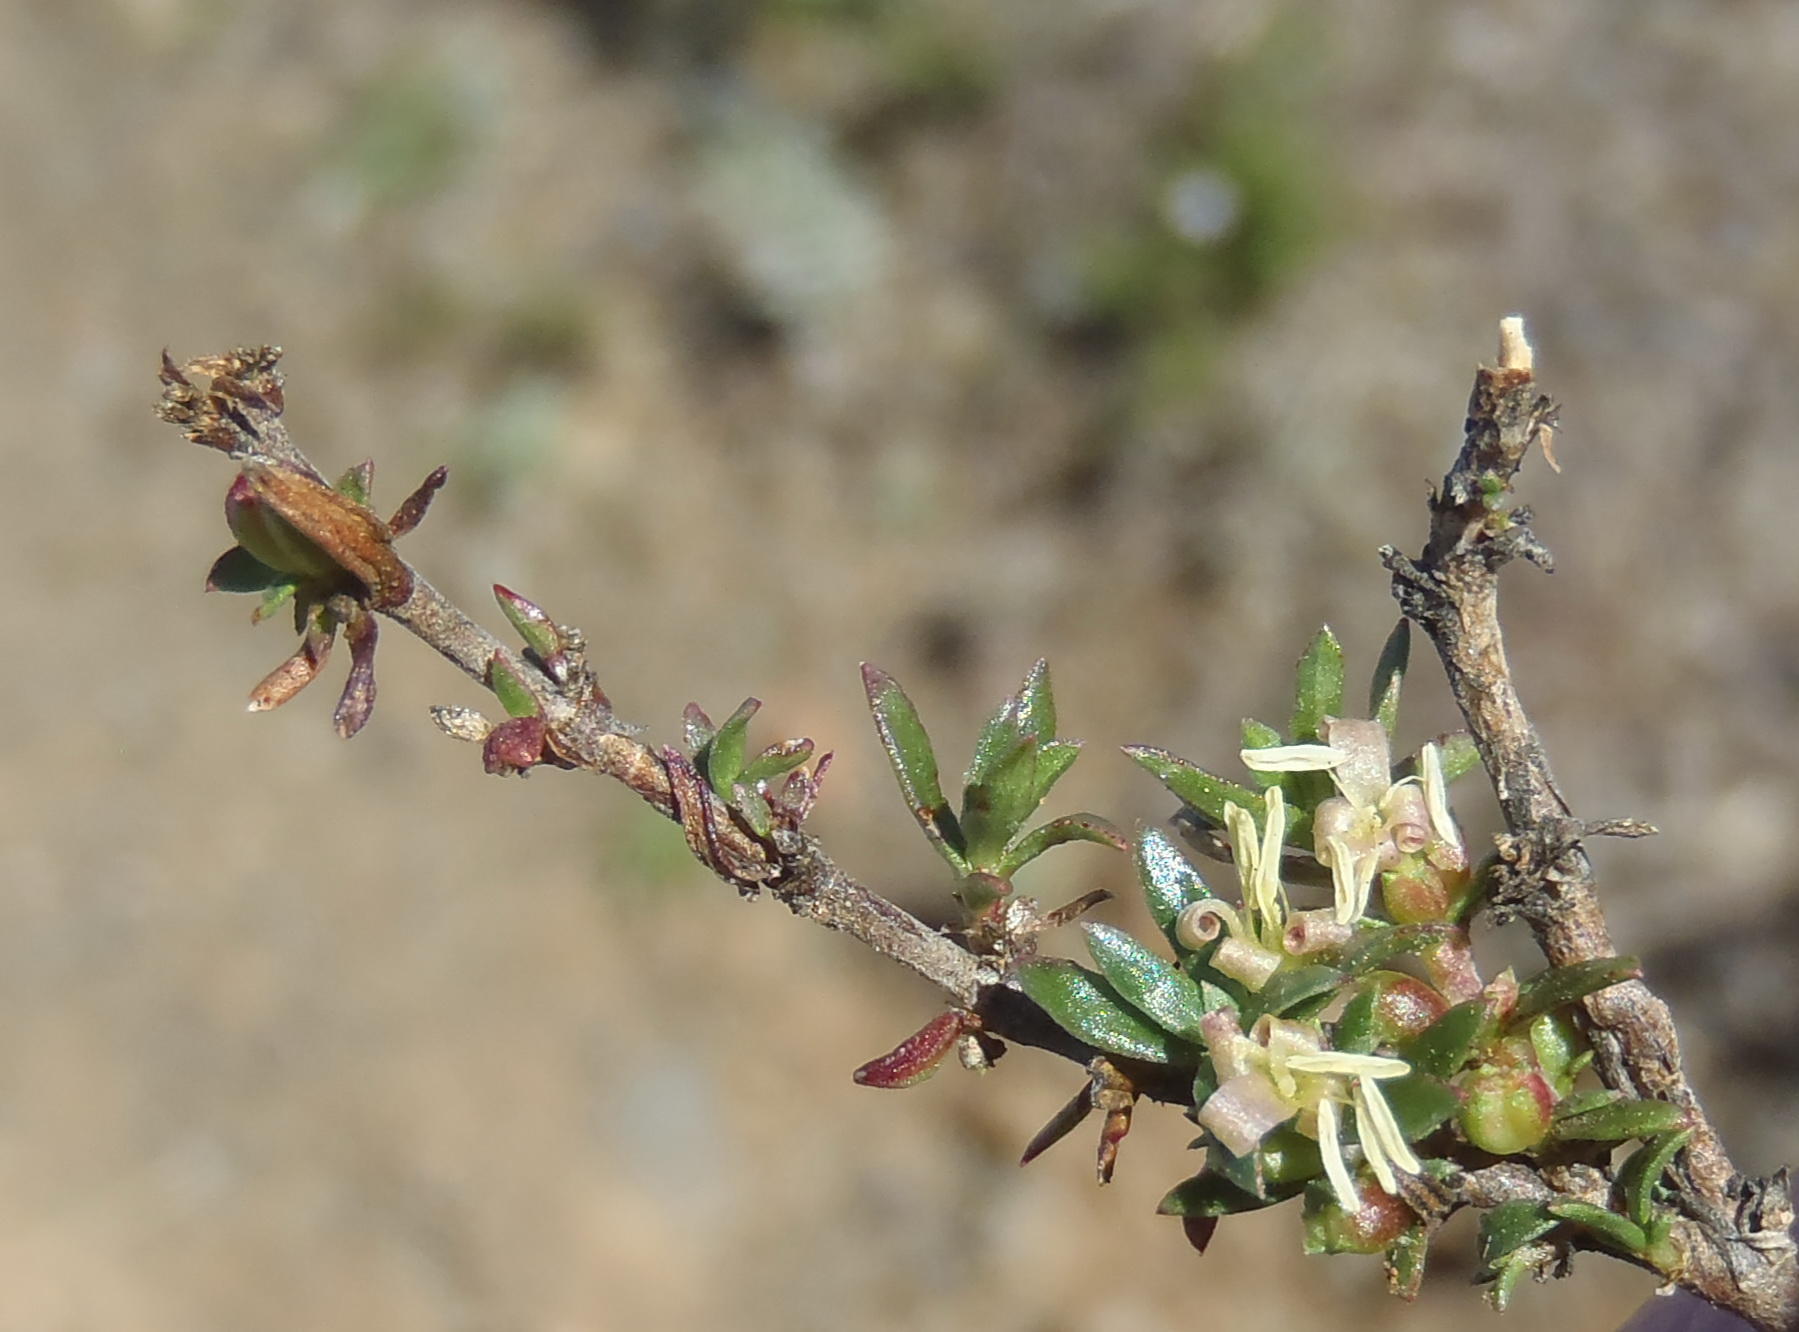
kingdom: Plantae
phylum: Tracheophyta
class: Magnoliopsida
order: Gentianales
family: Rubiaceae
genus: Nenax
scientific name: Nenax microphylla
